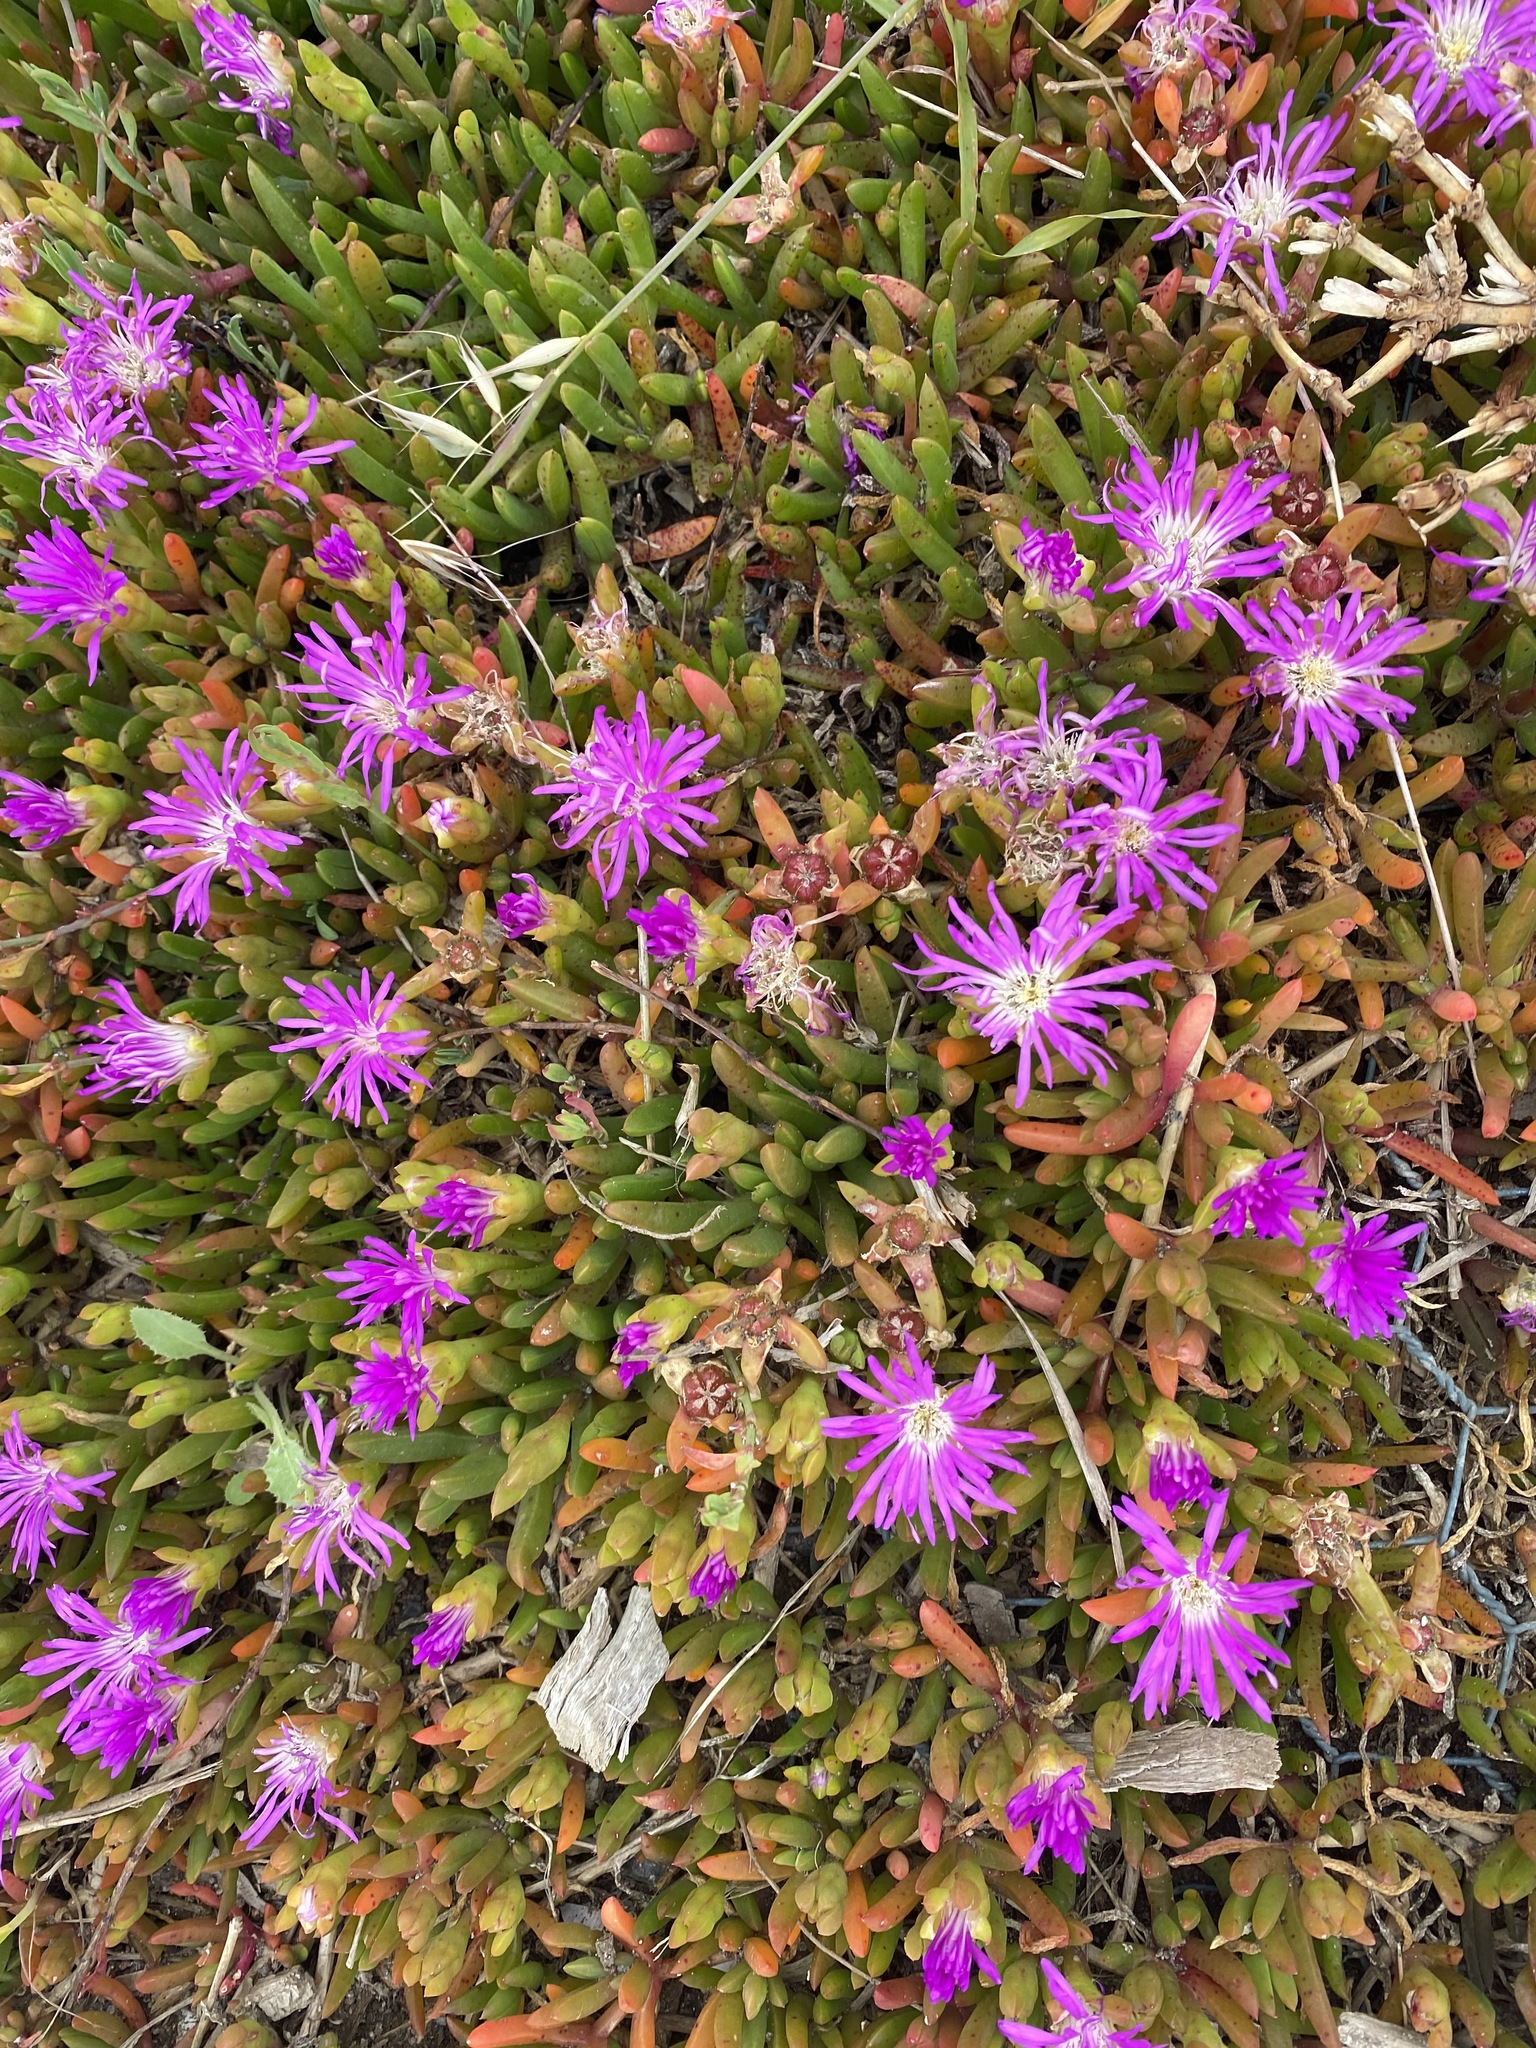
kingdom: Plantae
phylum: Tracheophyta
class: Magnoliopsida
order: Caryophyllales
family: Aizoaceae
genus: Disphyma
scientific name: Disphyma crassifolium
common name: Purple dewplant
